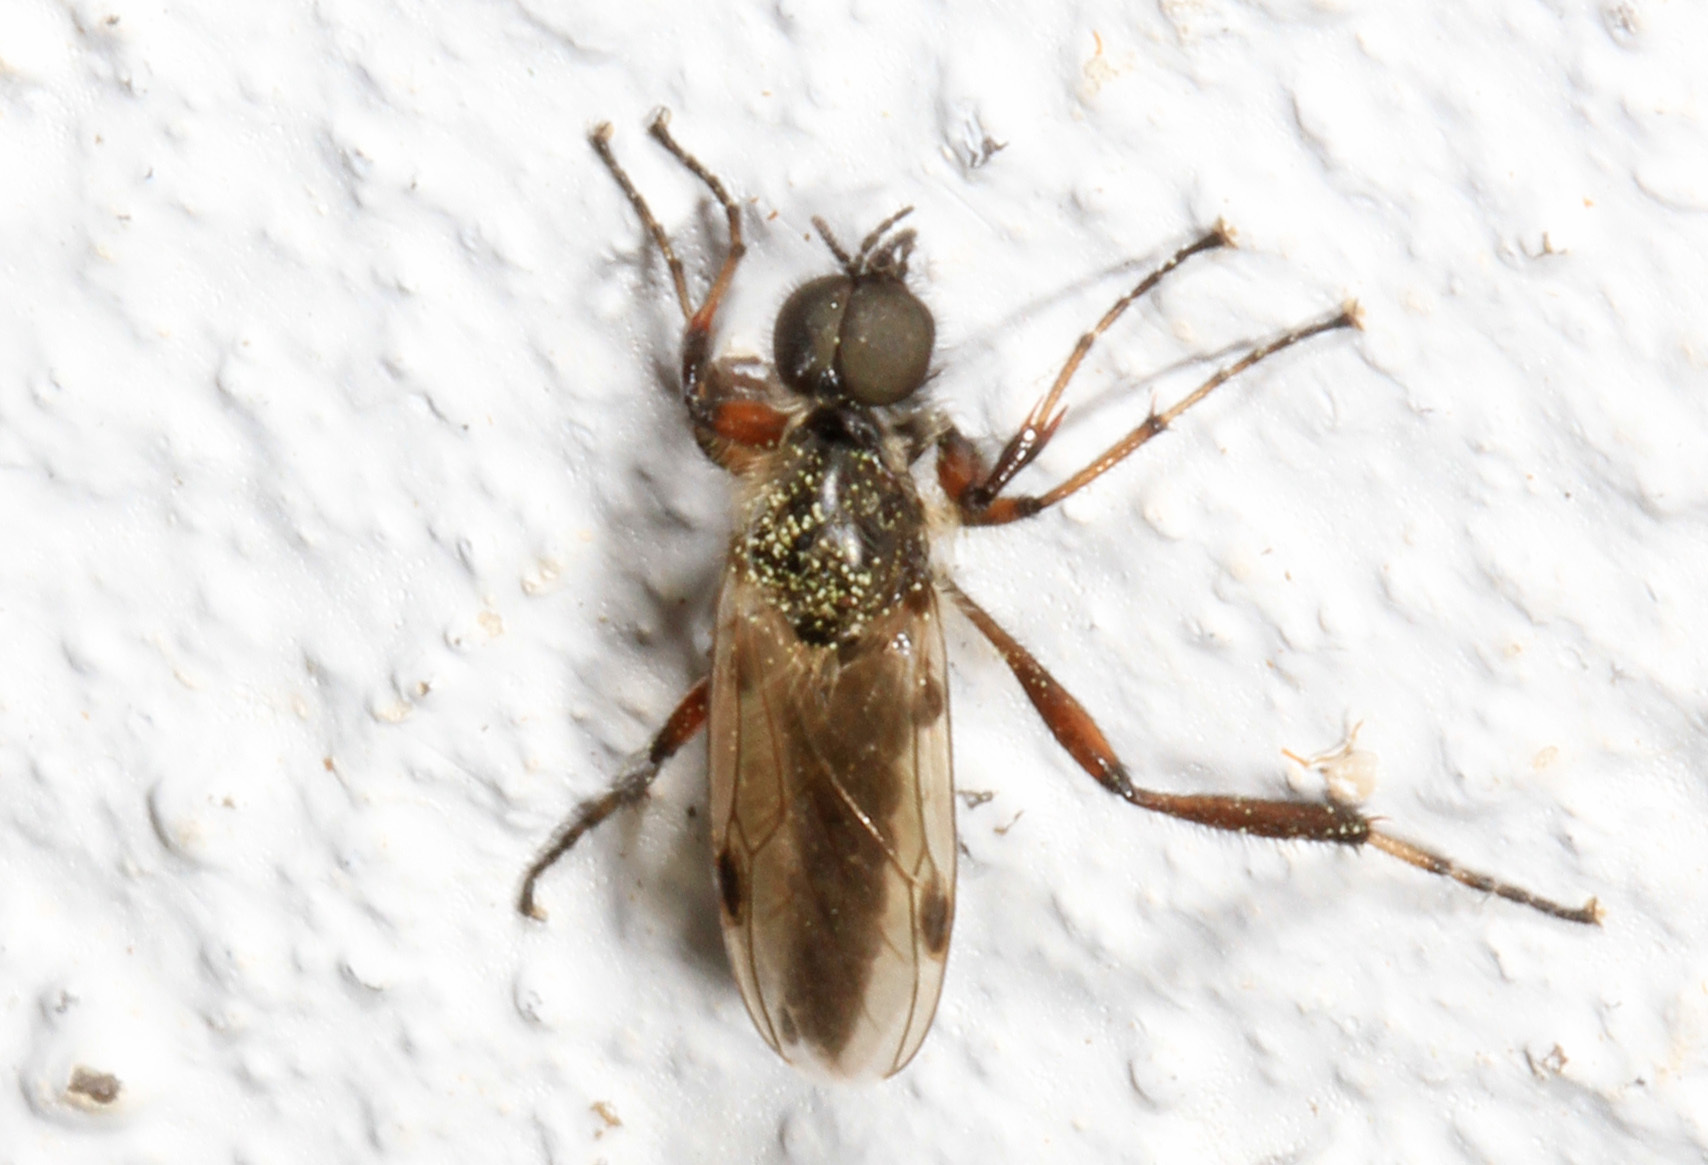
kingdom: Animalia
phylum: Arthropoda
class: Insecta
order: Diptera
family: Bibionidae
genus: Bibio
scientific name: Bibio articulatus
